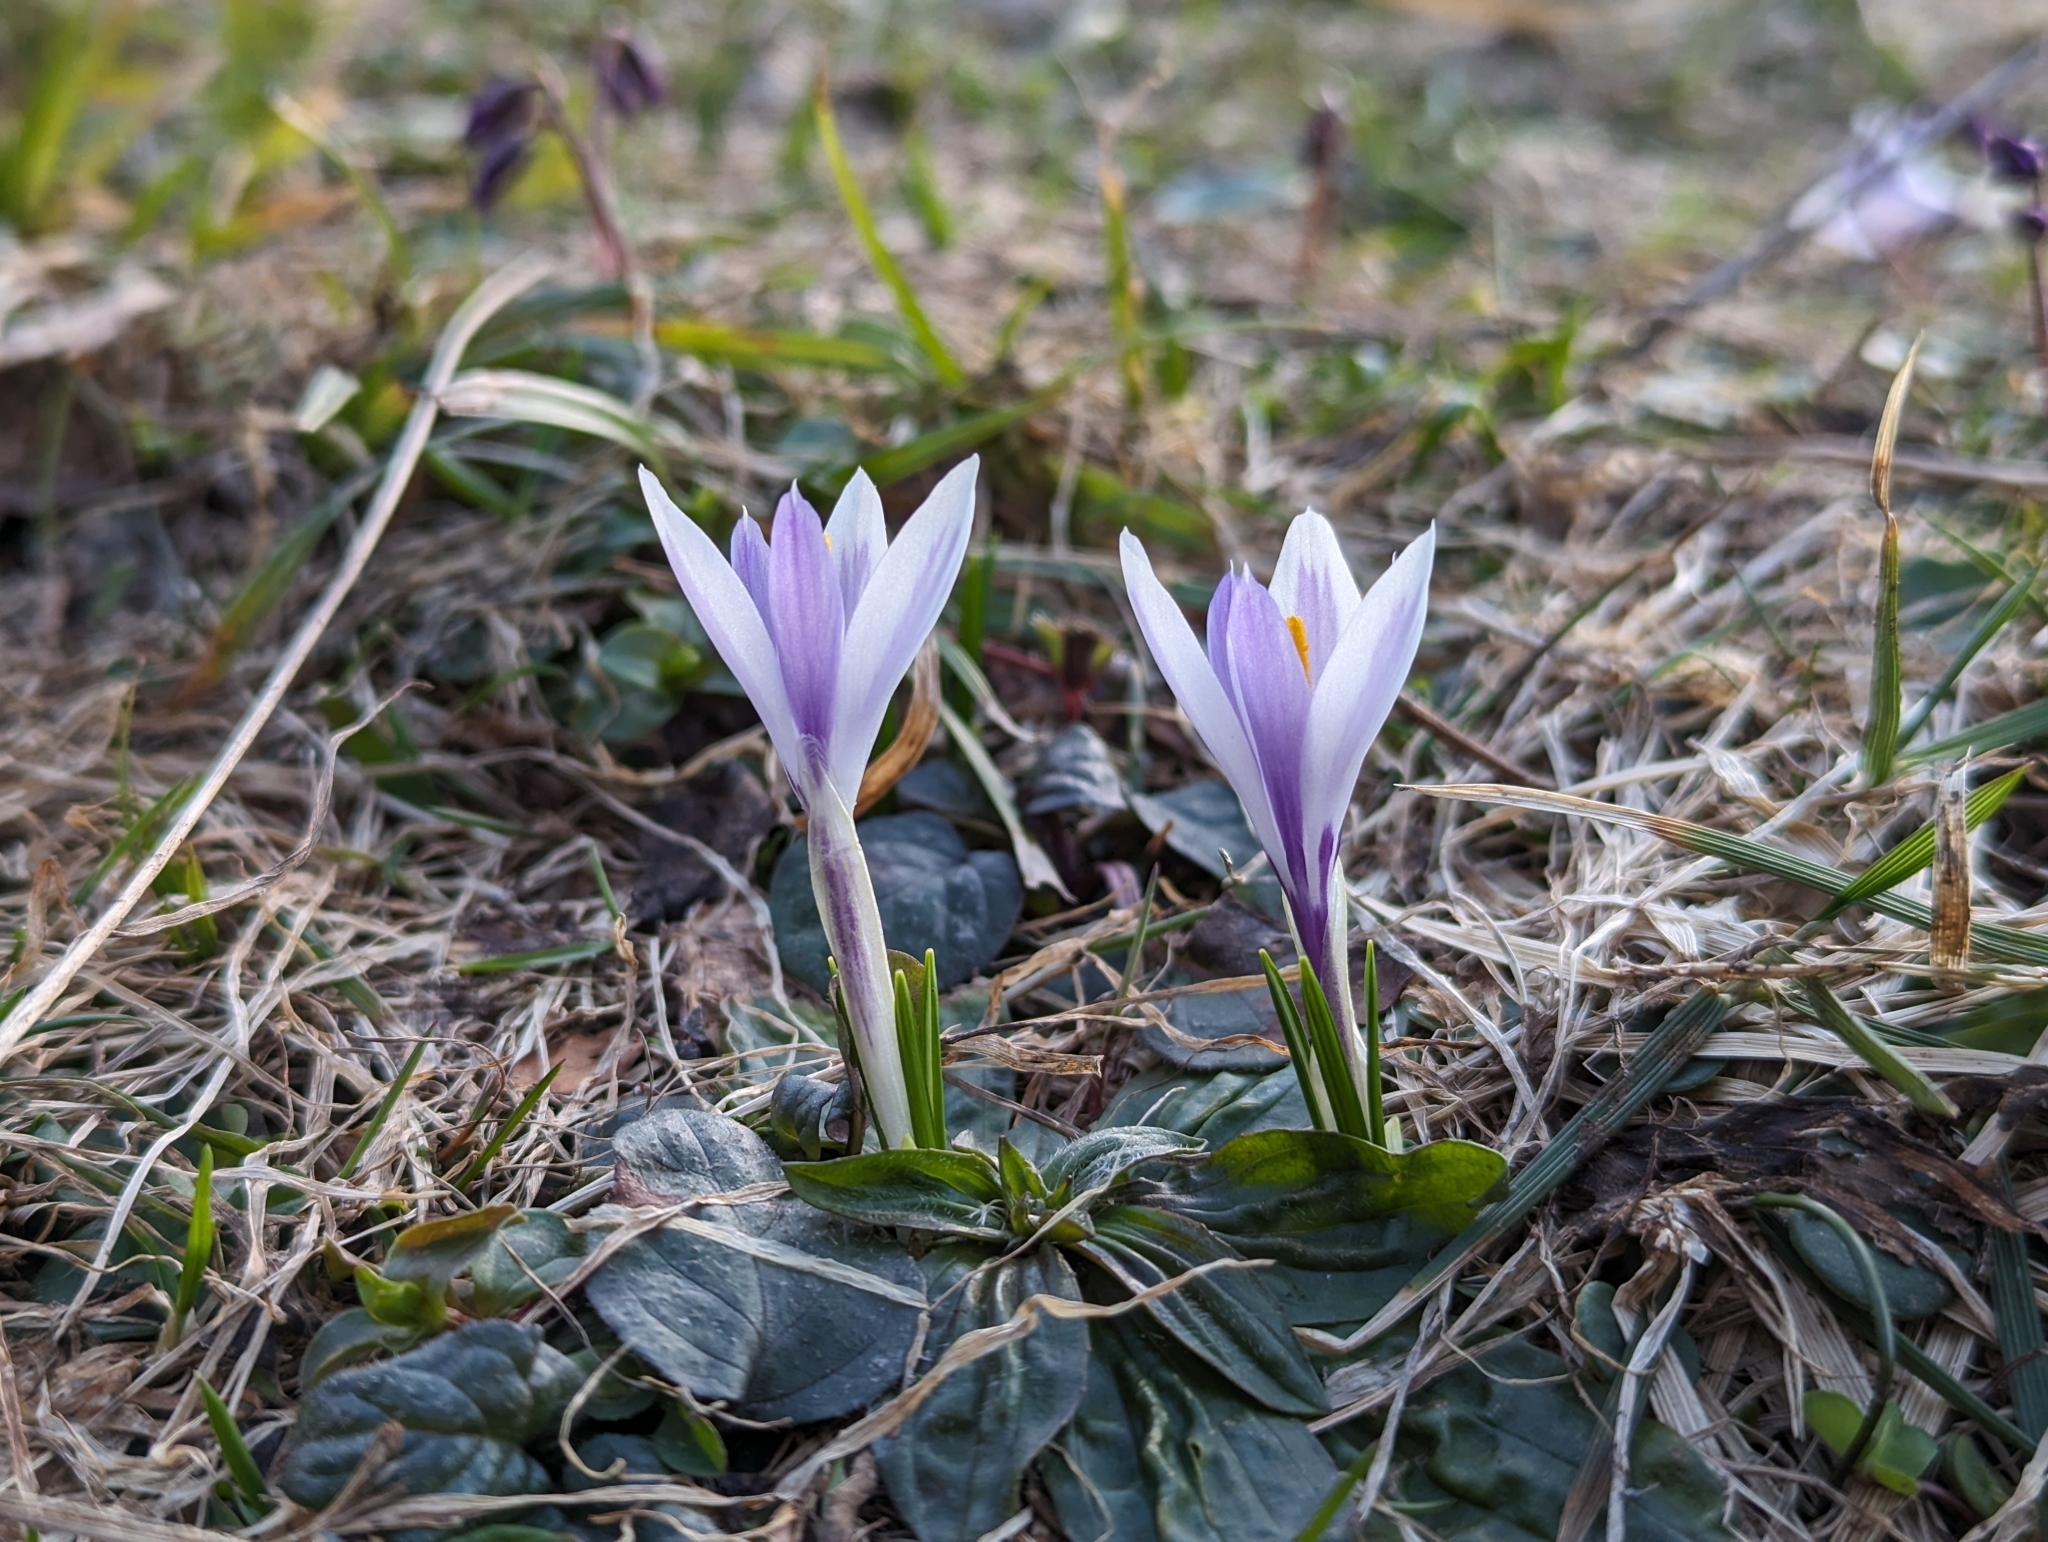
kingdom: Plantae
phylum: Tracheophyta
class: Liliopsida
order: Asparagales
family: Iridaceae
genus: Crocus
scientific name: Crocus vernus
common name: Spring crocus
